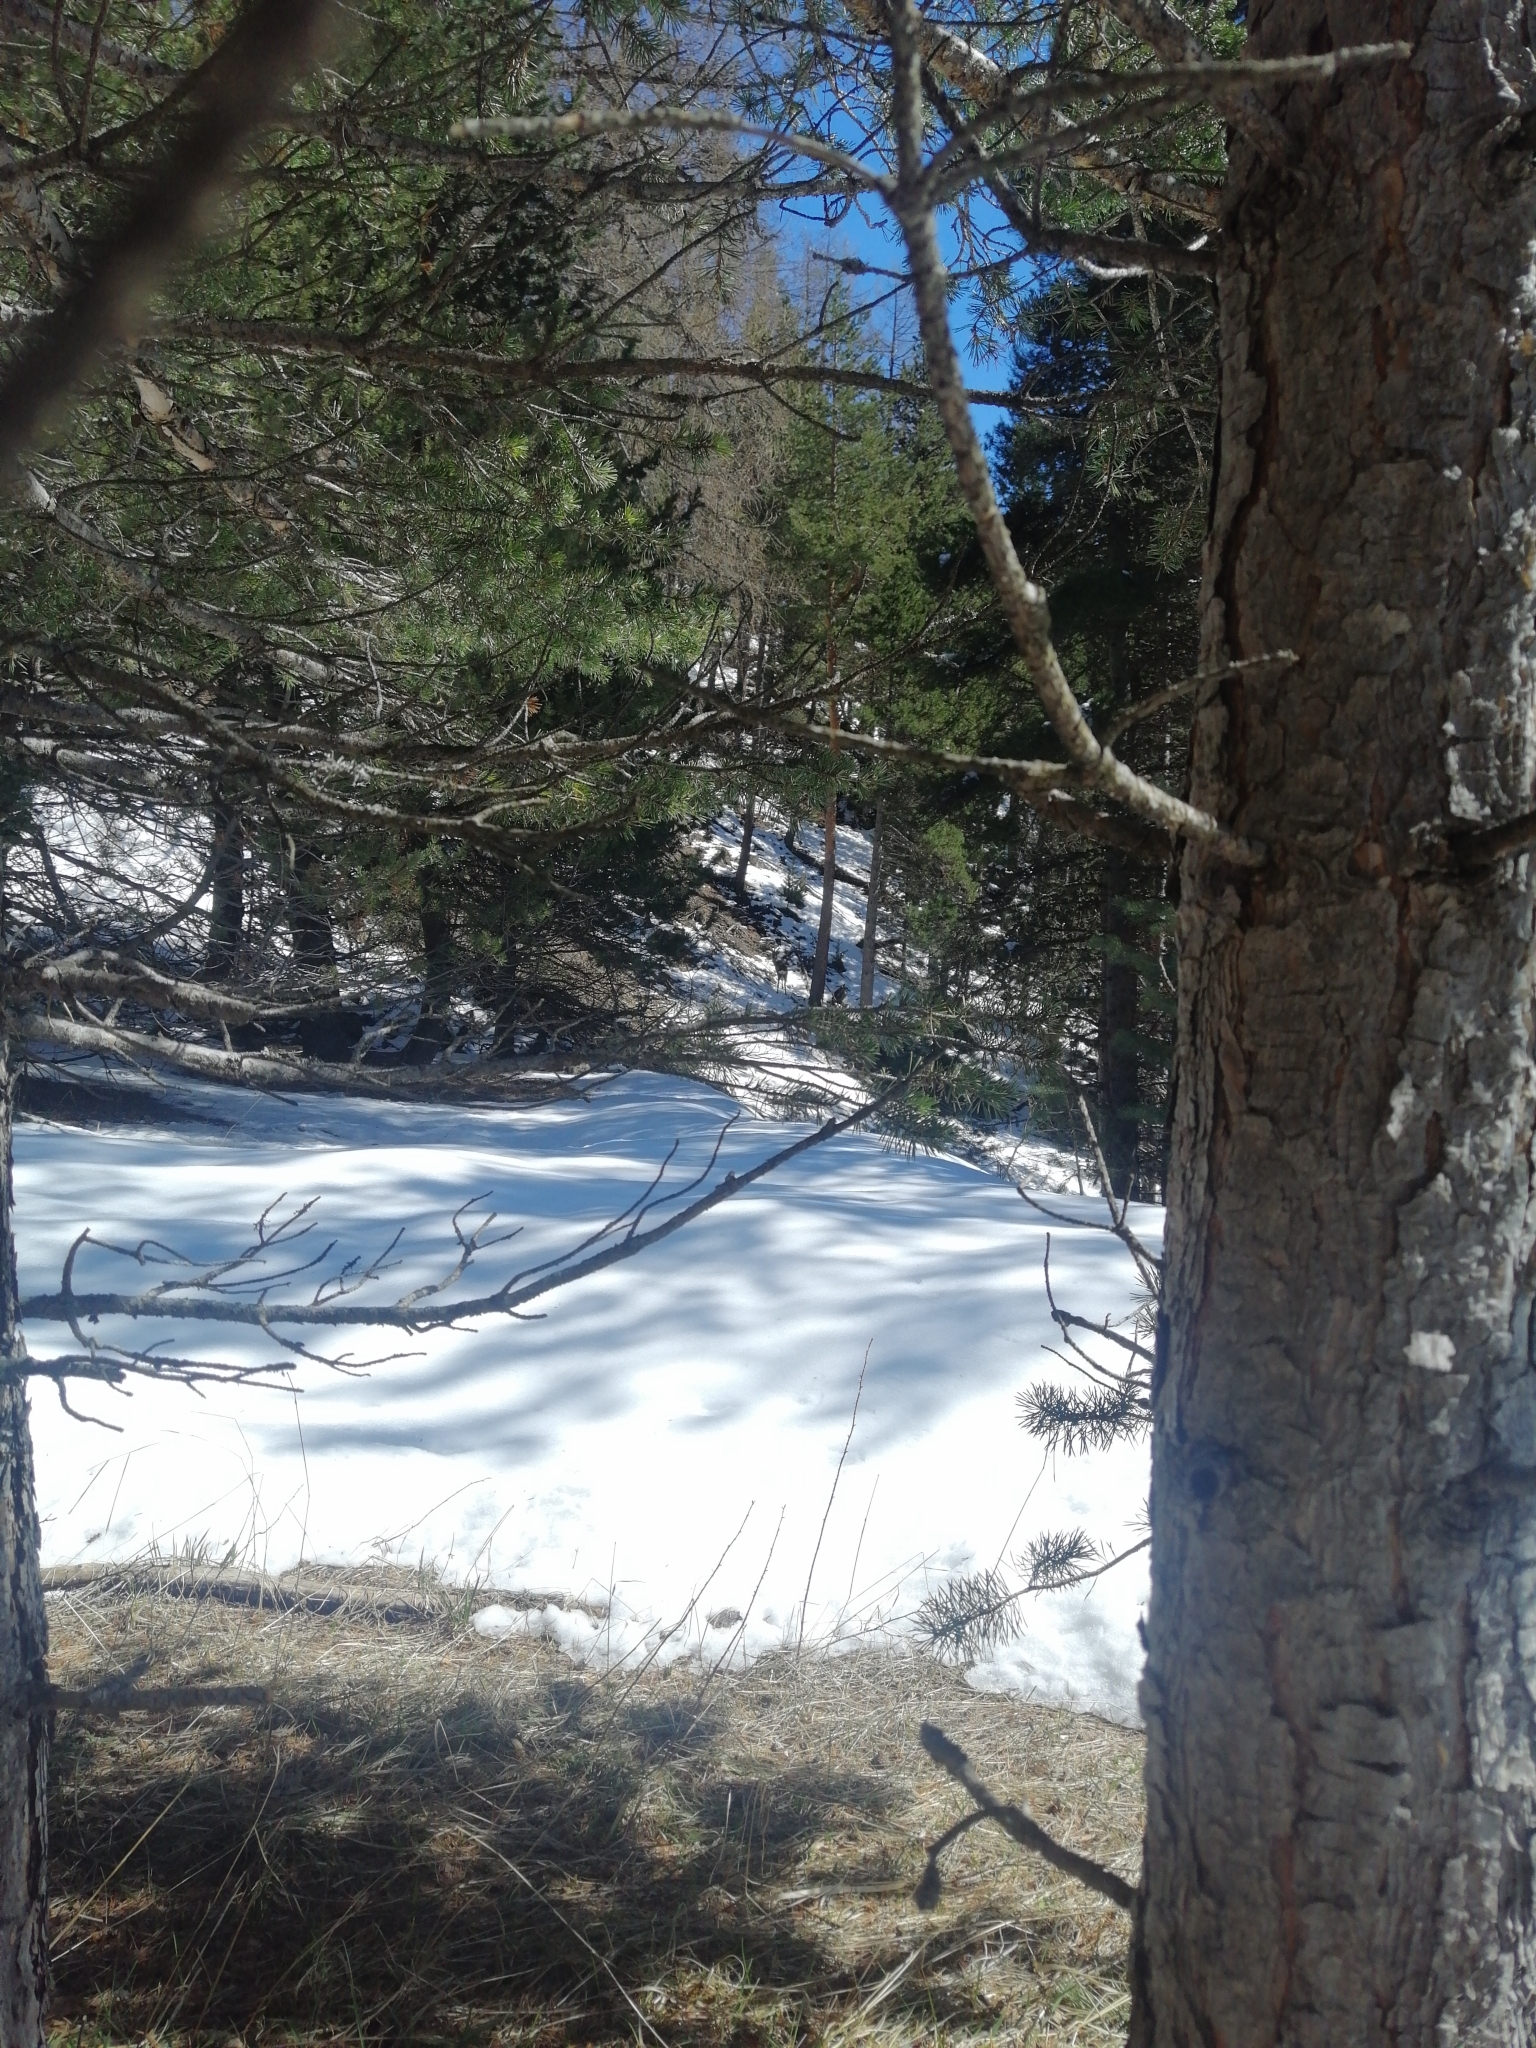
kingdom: Animalia
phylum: Chordata
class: Mammalia
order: Artiodactyla
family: Cervidae
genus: Capreolus
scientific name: Capreolus capreolus
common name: Western roe deer
